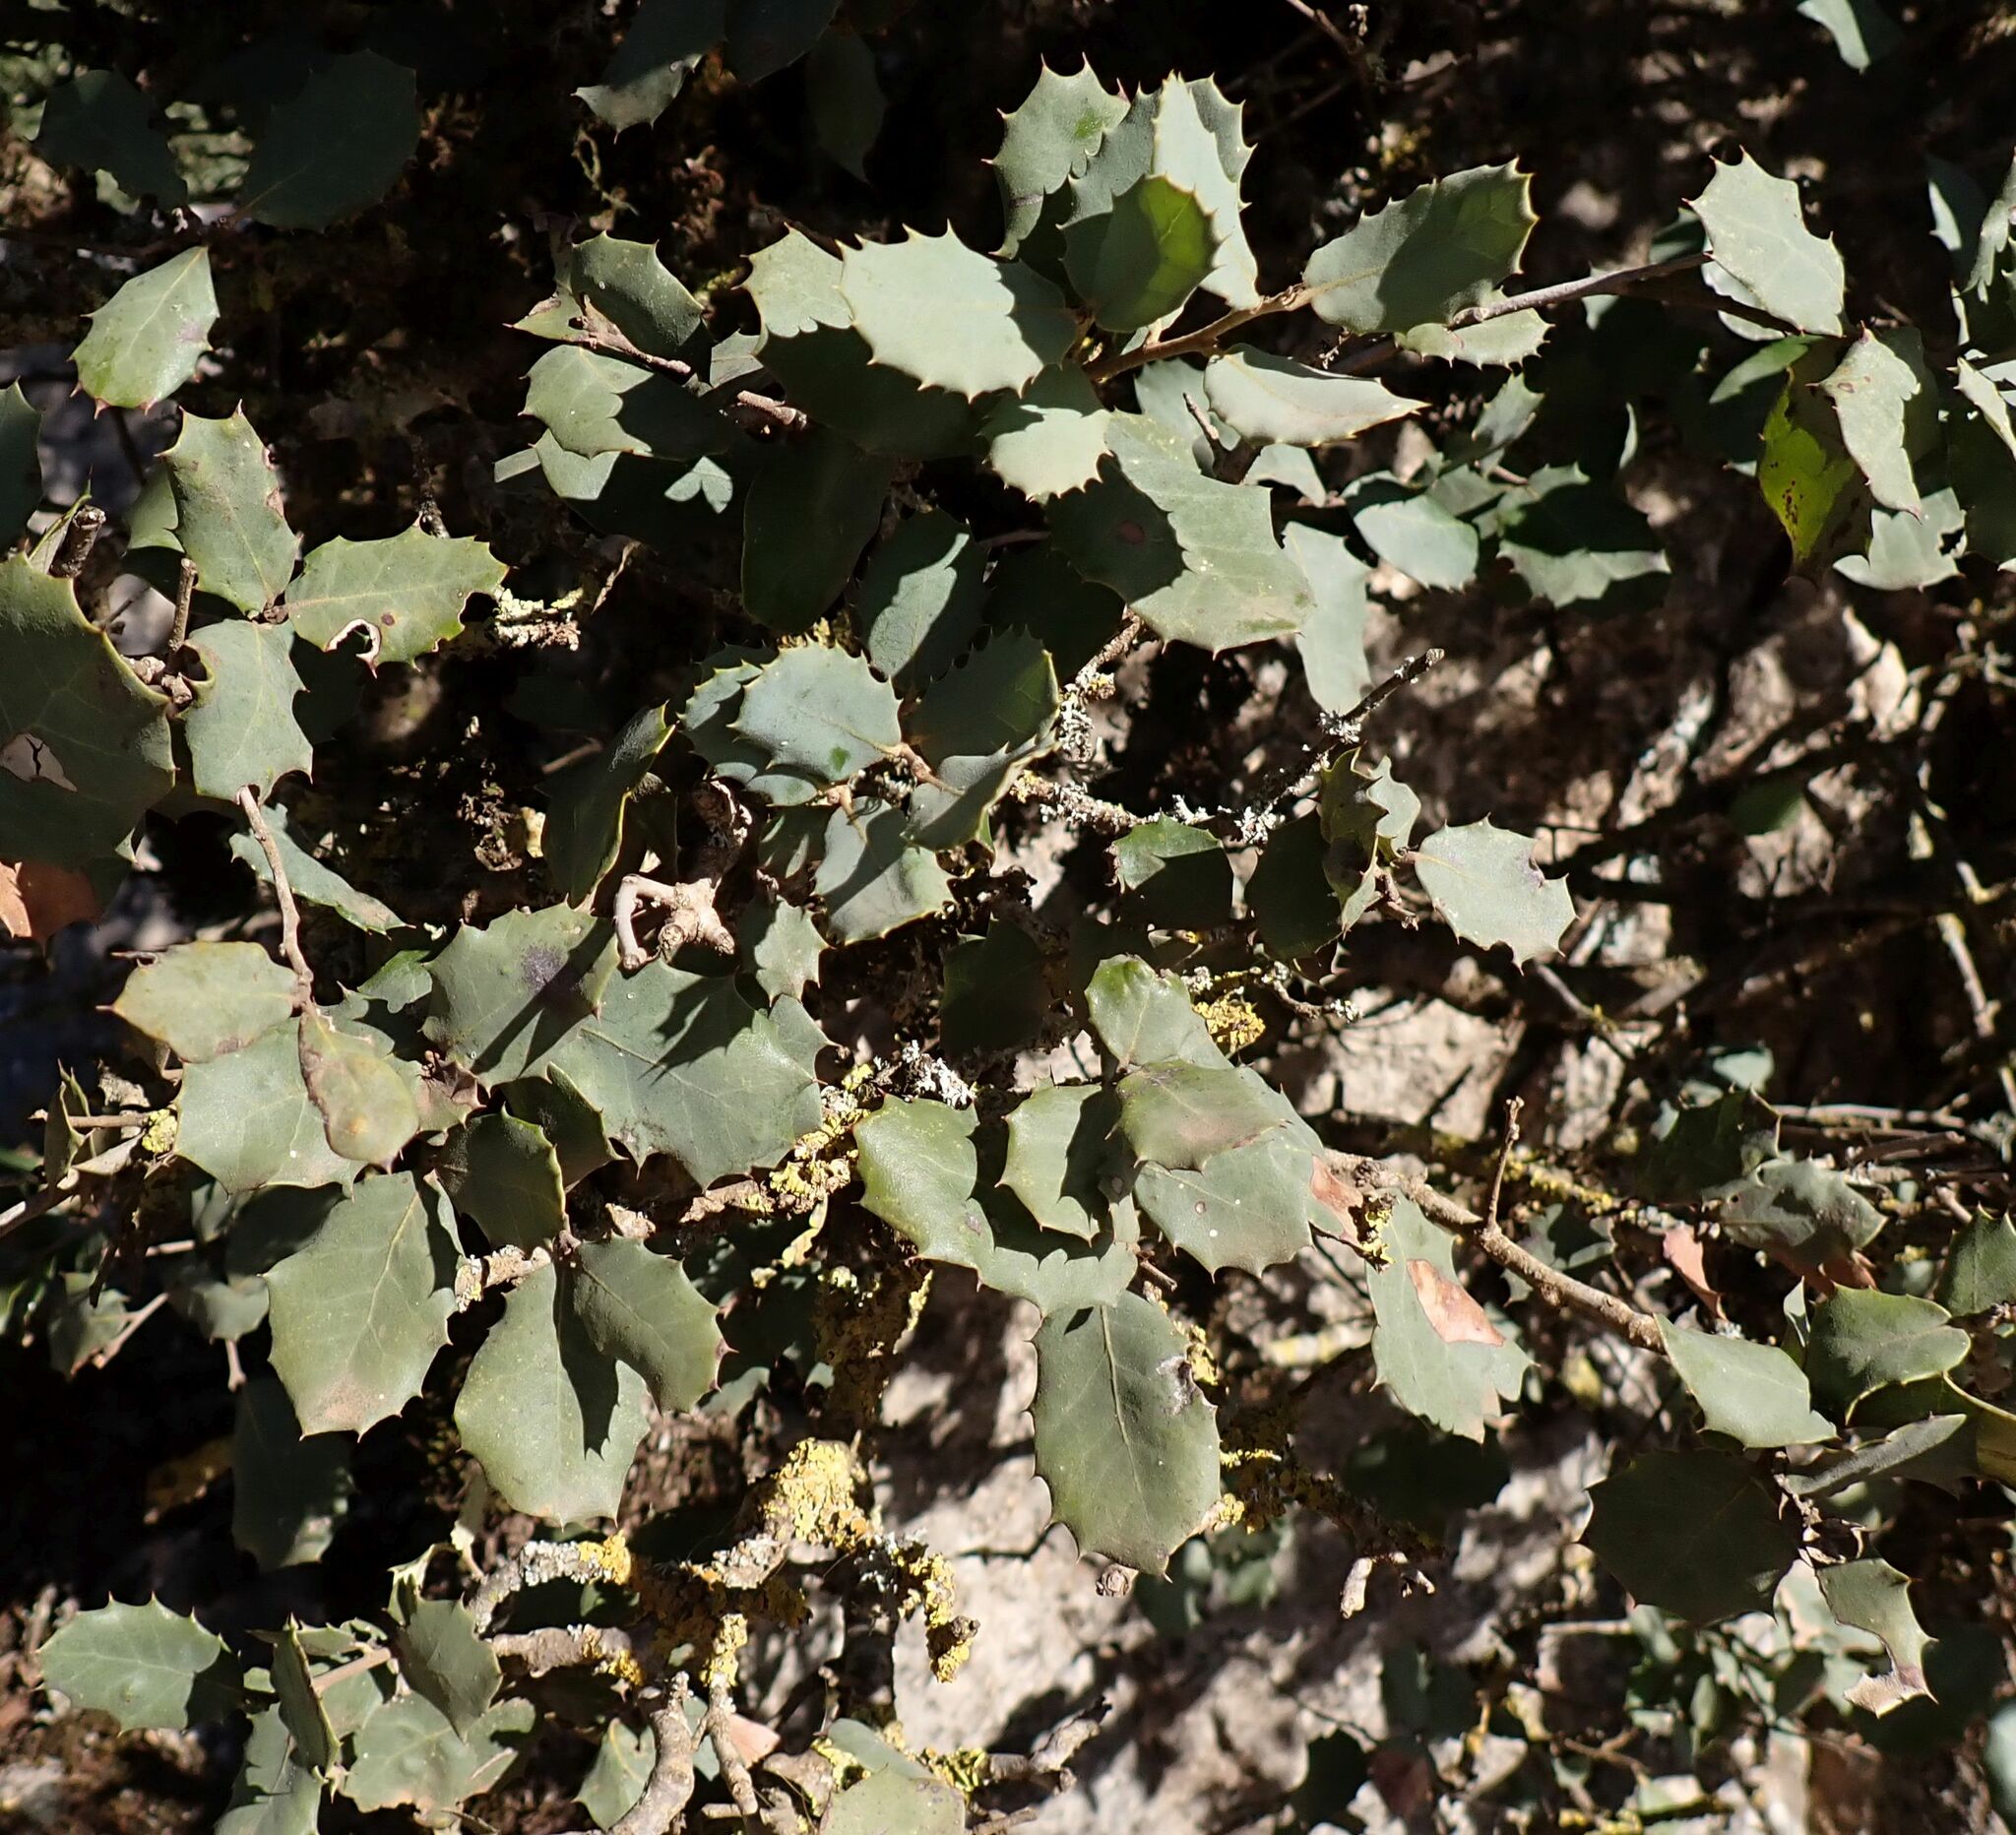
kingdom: Plantae
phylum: Tracheophyta
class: Magnoliopsida
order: Fagales
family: Fagaceae
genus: Quercus
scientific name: Quercus rotundifolia
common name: Holm oak
